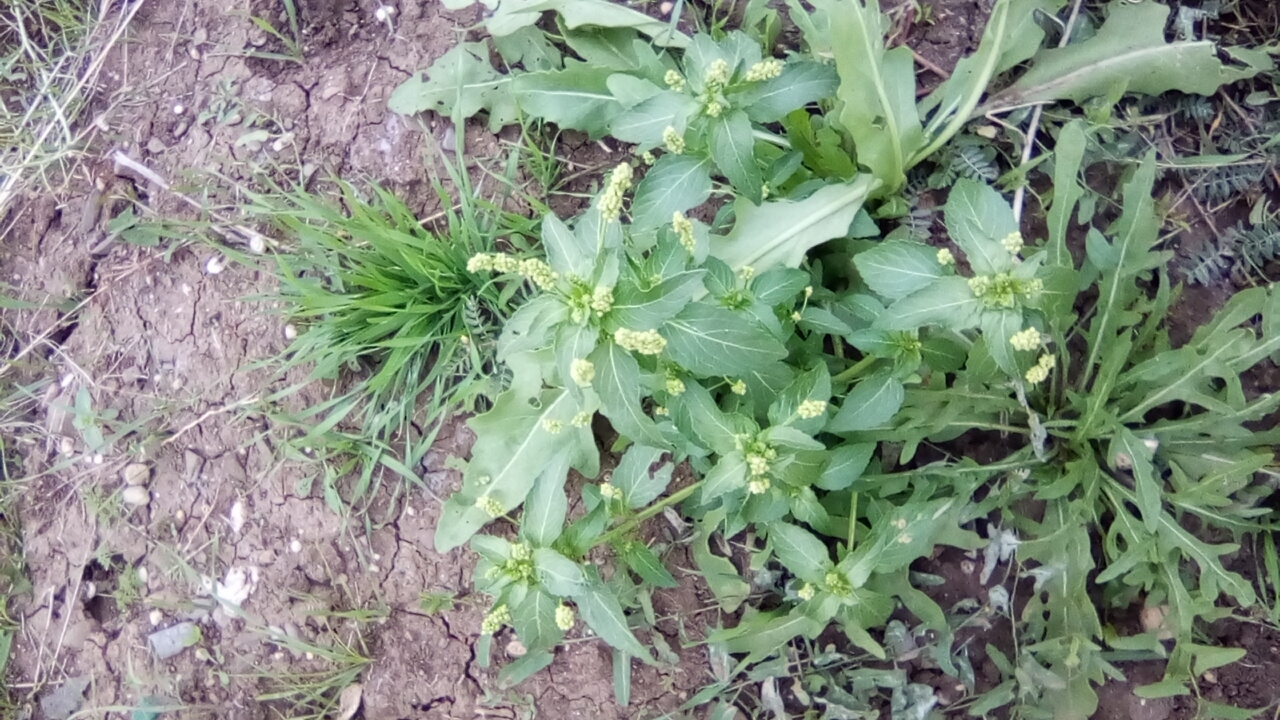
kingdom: Plantae
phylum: Tracheophyta
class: Magnoliopsida
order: Malpighiales
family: Euphorbiaceae
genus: Mercurialis
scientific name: Mercurialis annua
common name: Annual mercury
